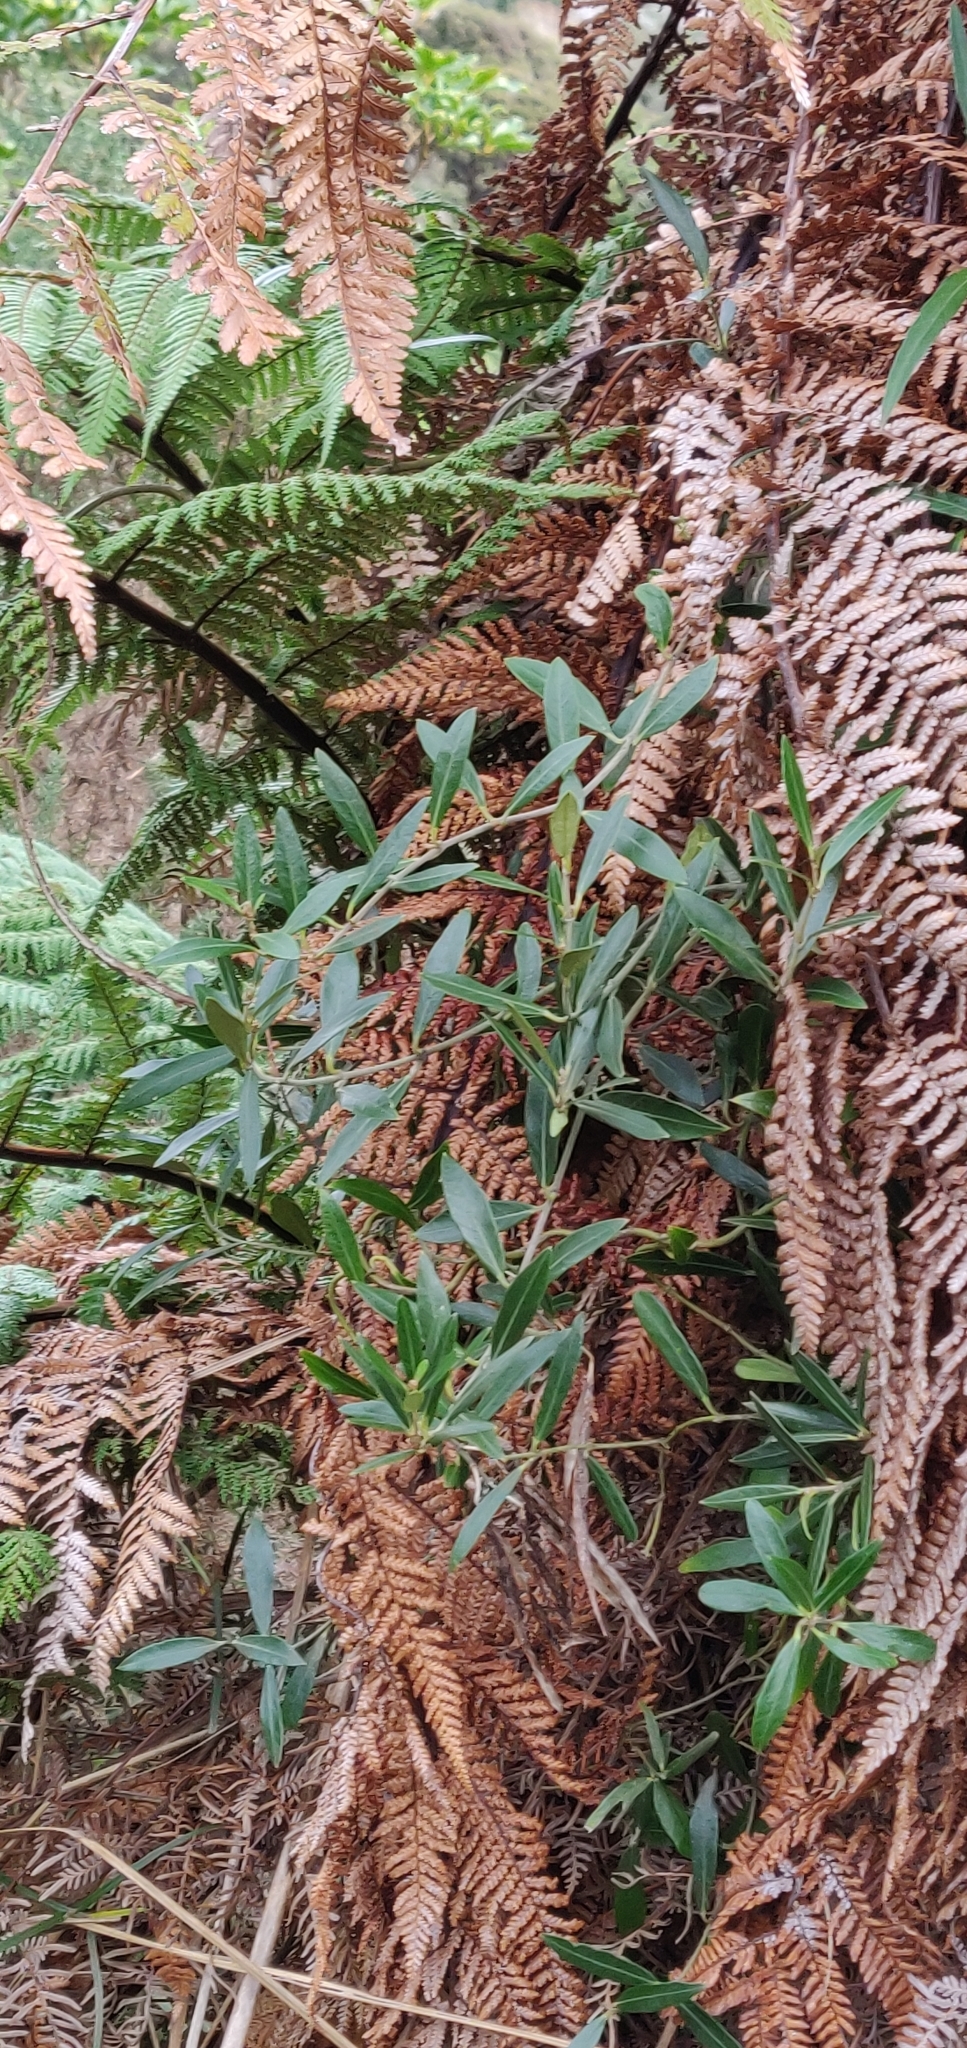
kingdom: Plantae
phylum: Tracheophyta
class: Magnoliopsida
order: Gentianales
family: Apocynaceae
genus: Parsonsia
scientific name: Parsonsia heterophylla
